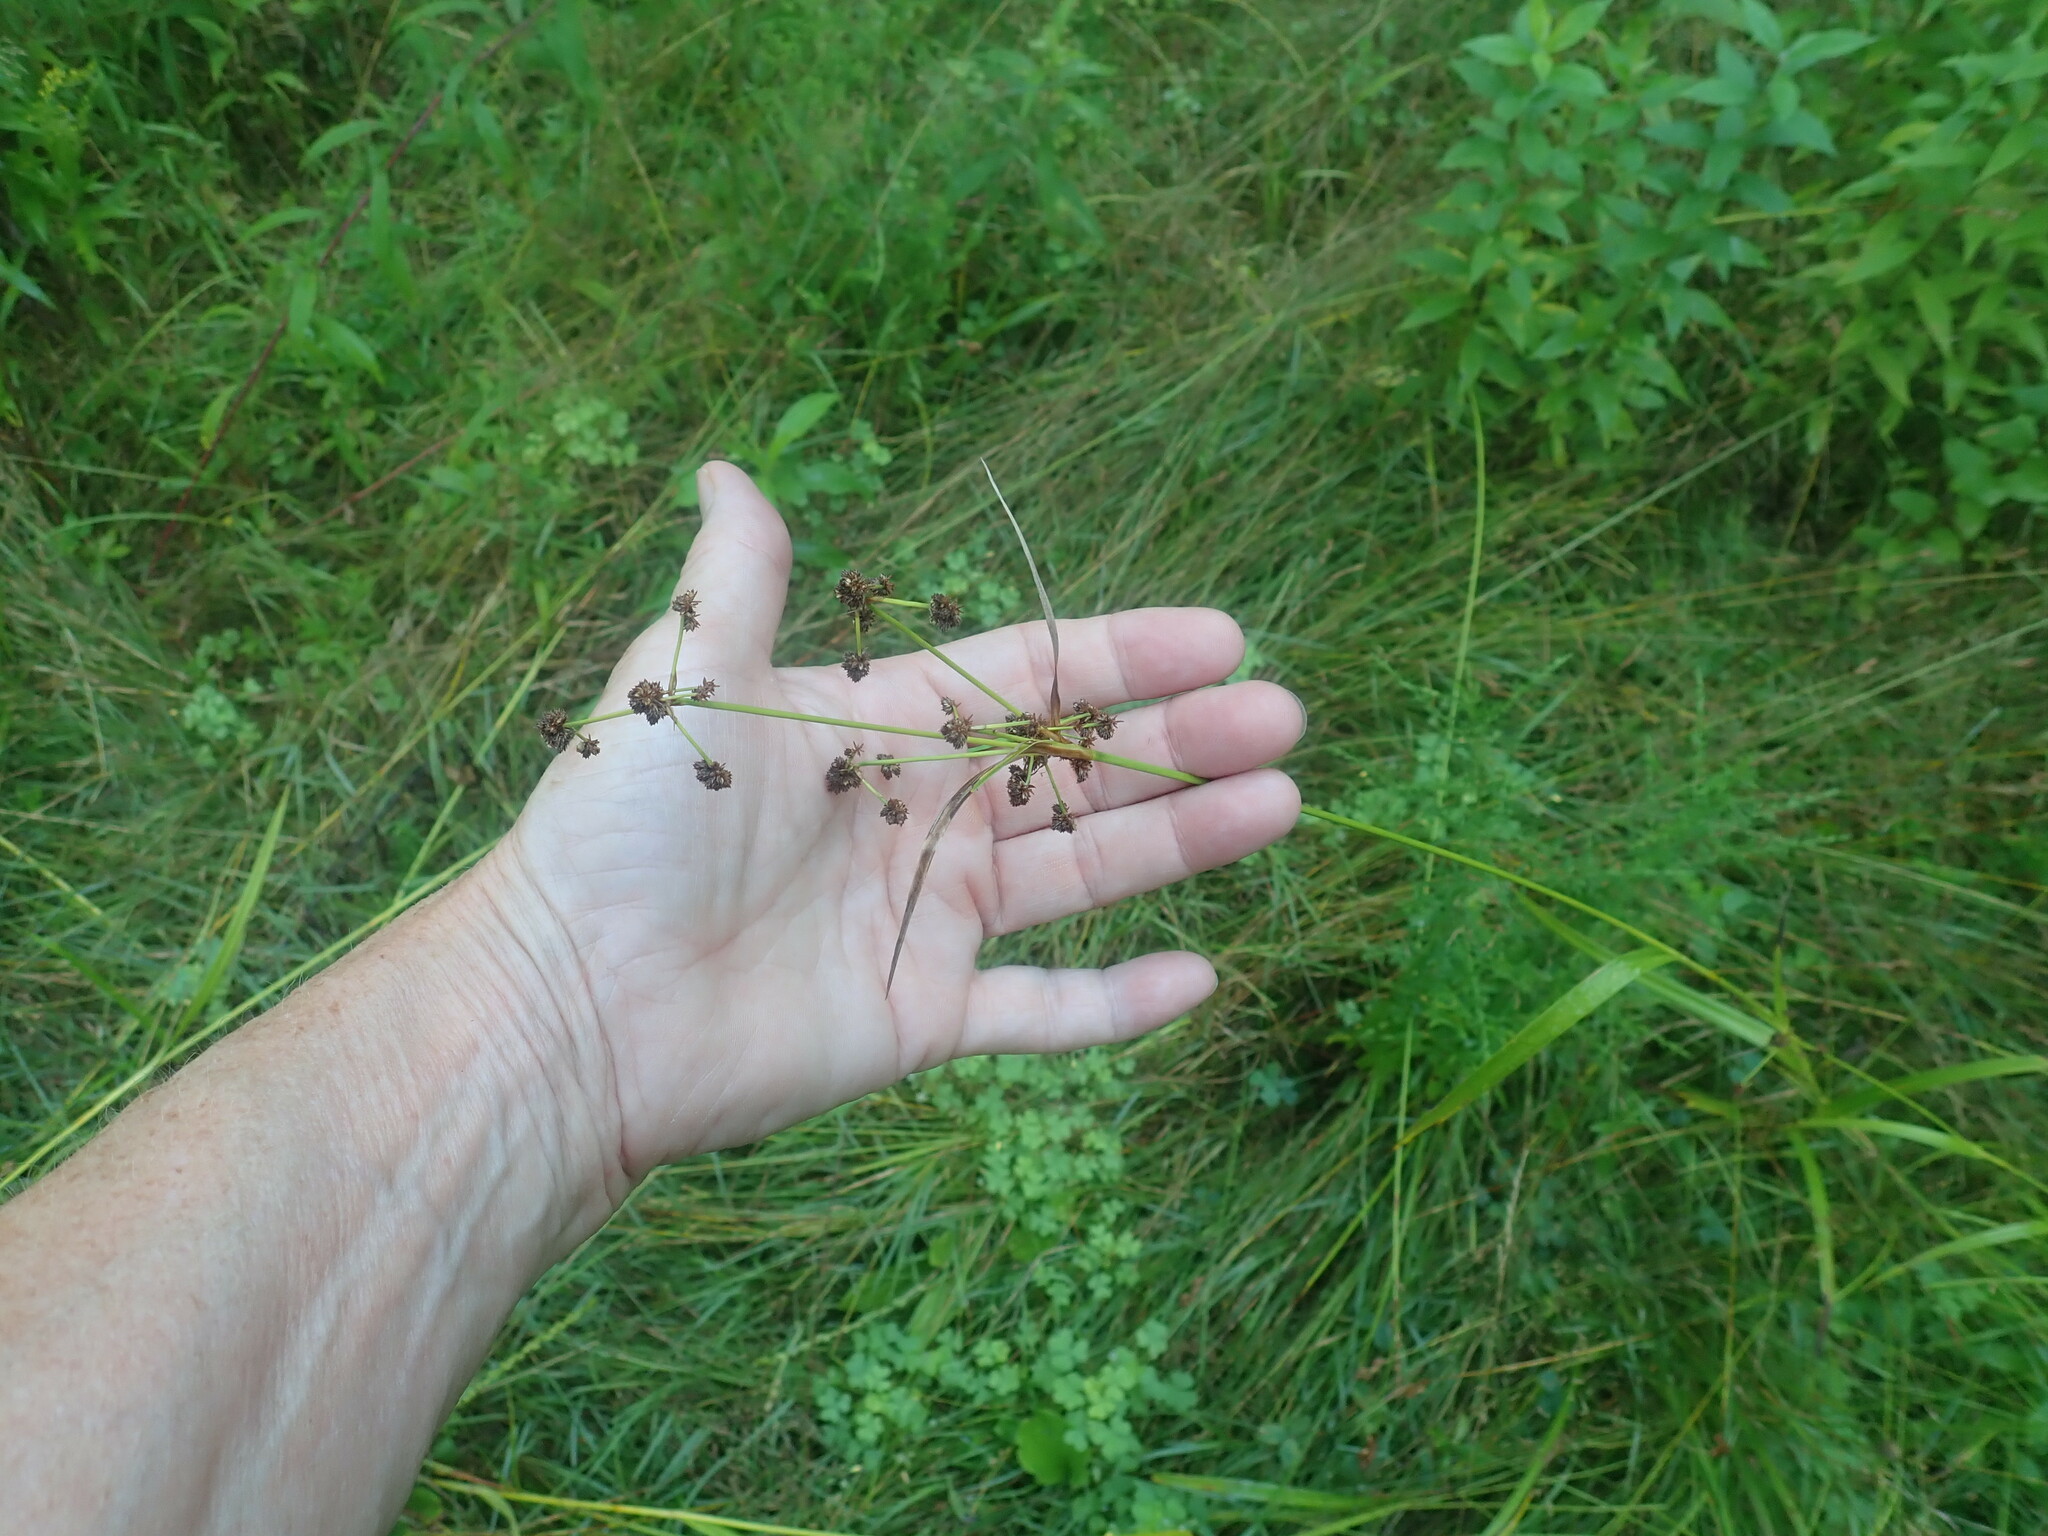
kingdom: Plantae
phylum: Tracheophyta
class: Liliopsida
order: Poales
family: Cyperaceae
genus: Scirpus
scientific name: Scirpus
